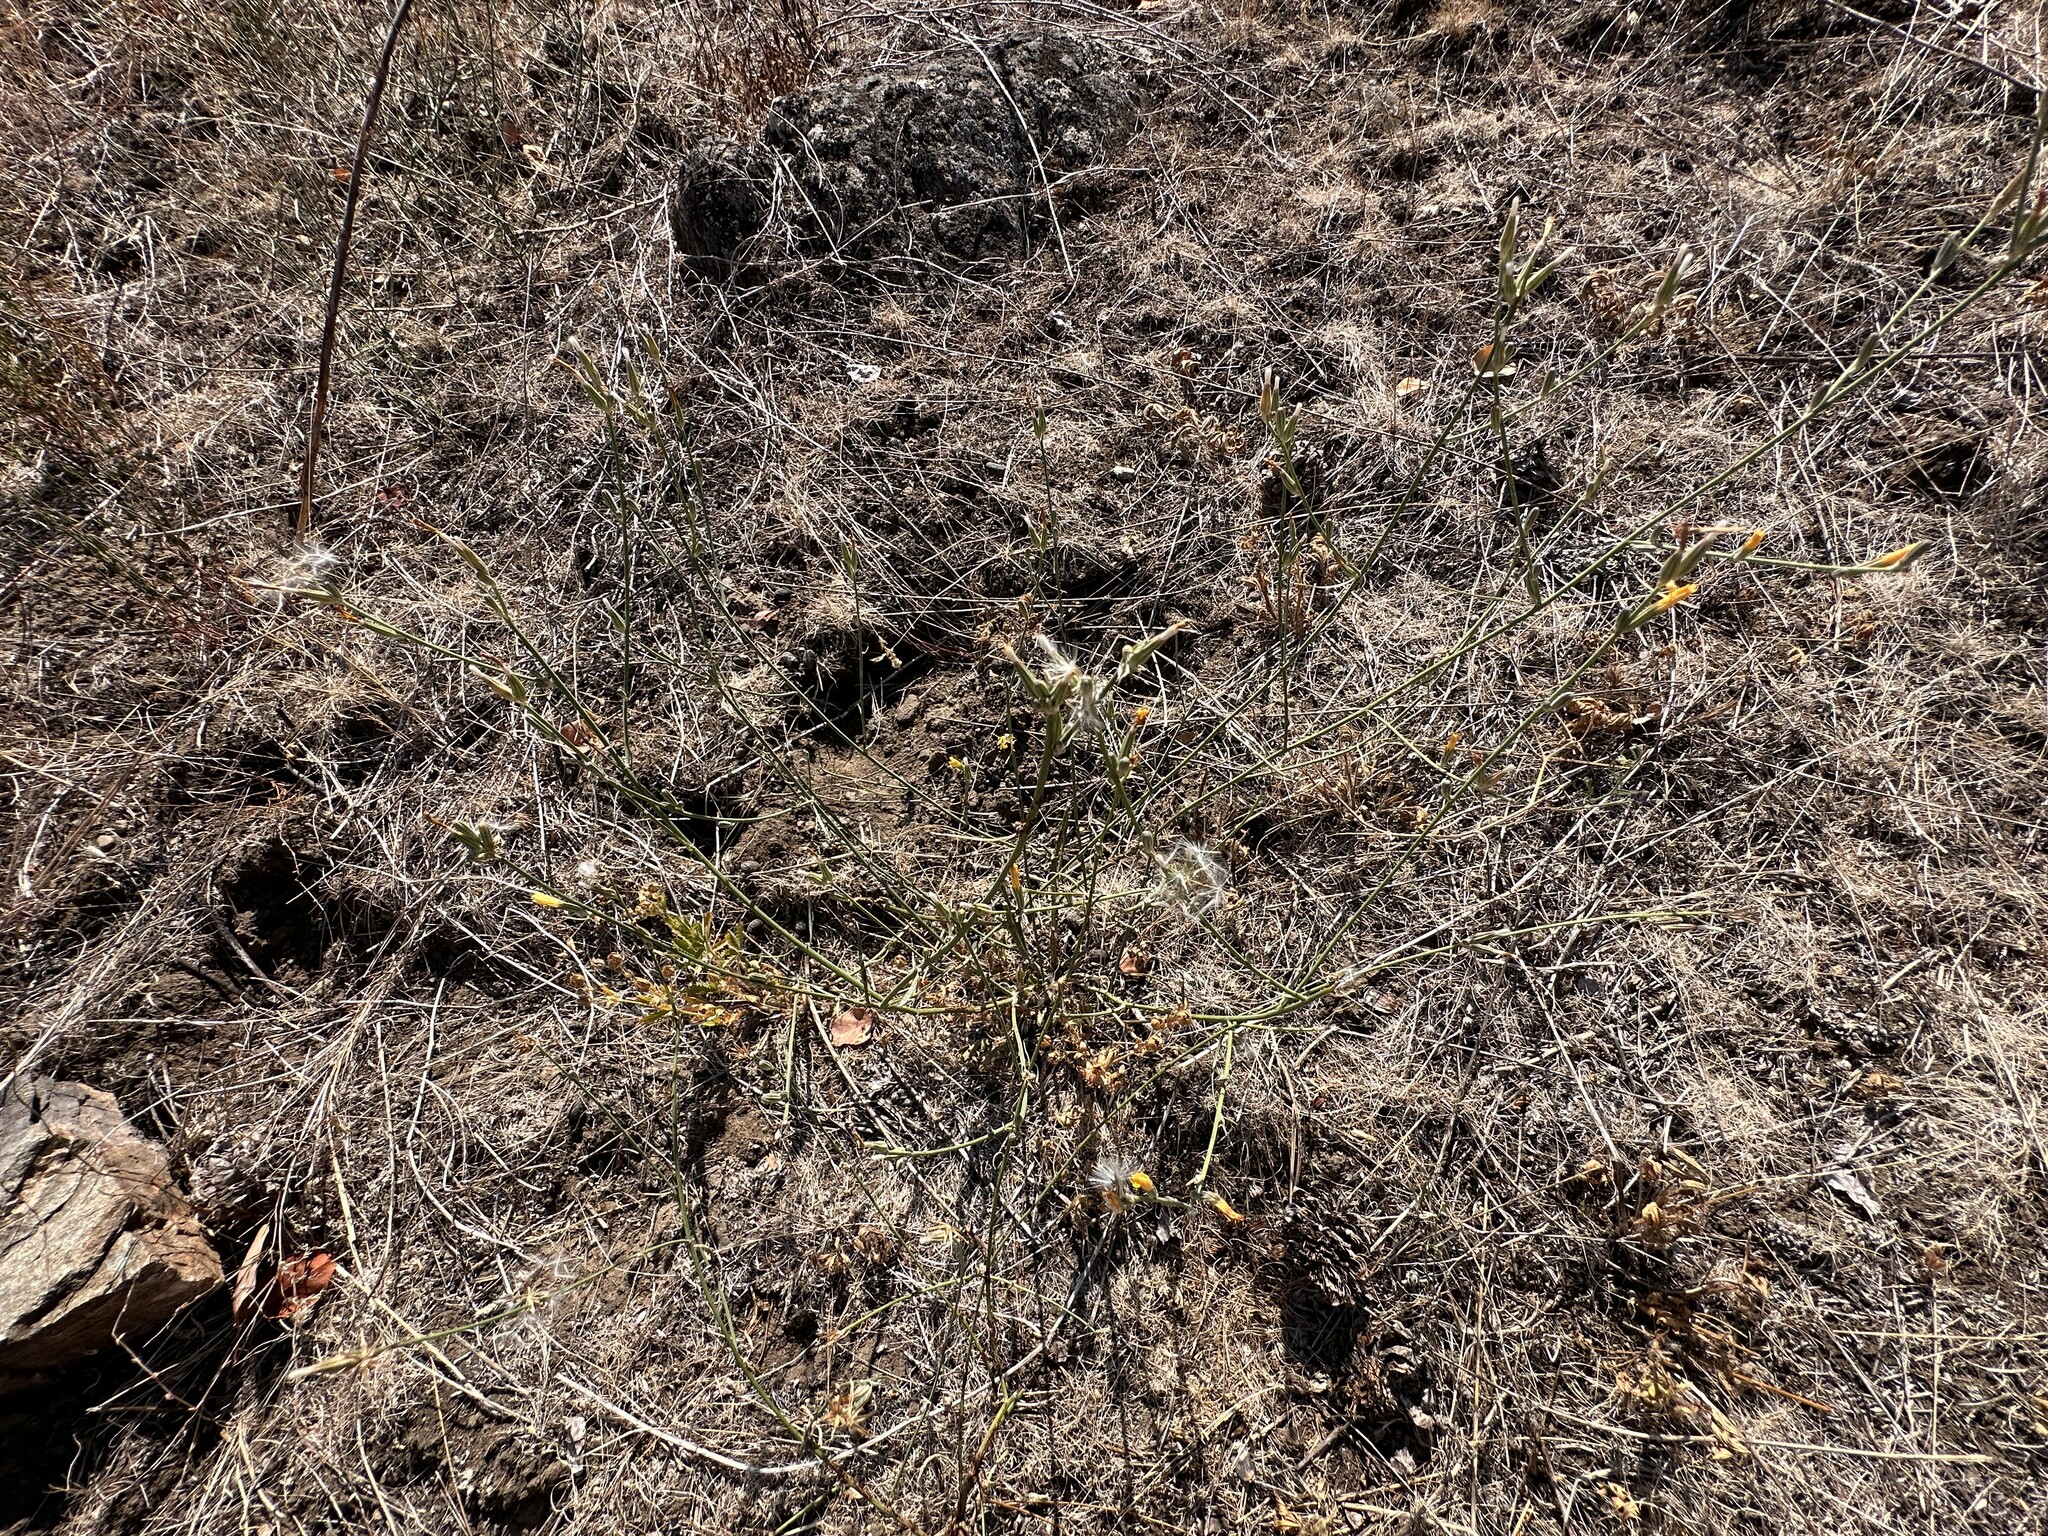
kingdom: Plantae
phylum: Tracheophyta
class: Magnoliopsida
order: Asterales
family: Asteraceae
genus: Chondrilla
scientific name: Chondrilla juncea
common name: Skeleton weed
